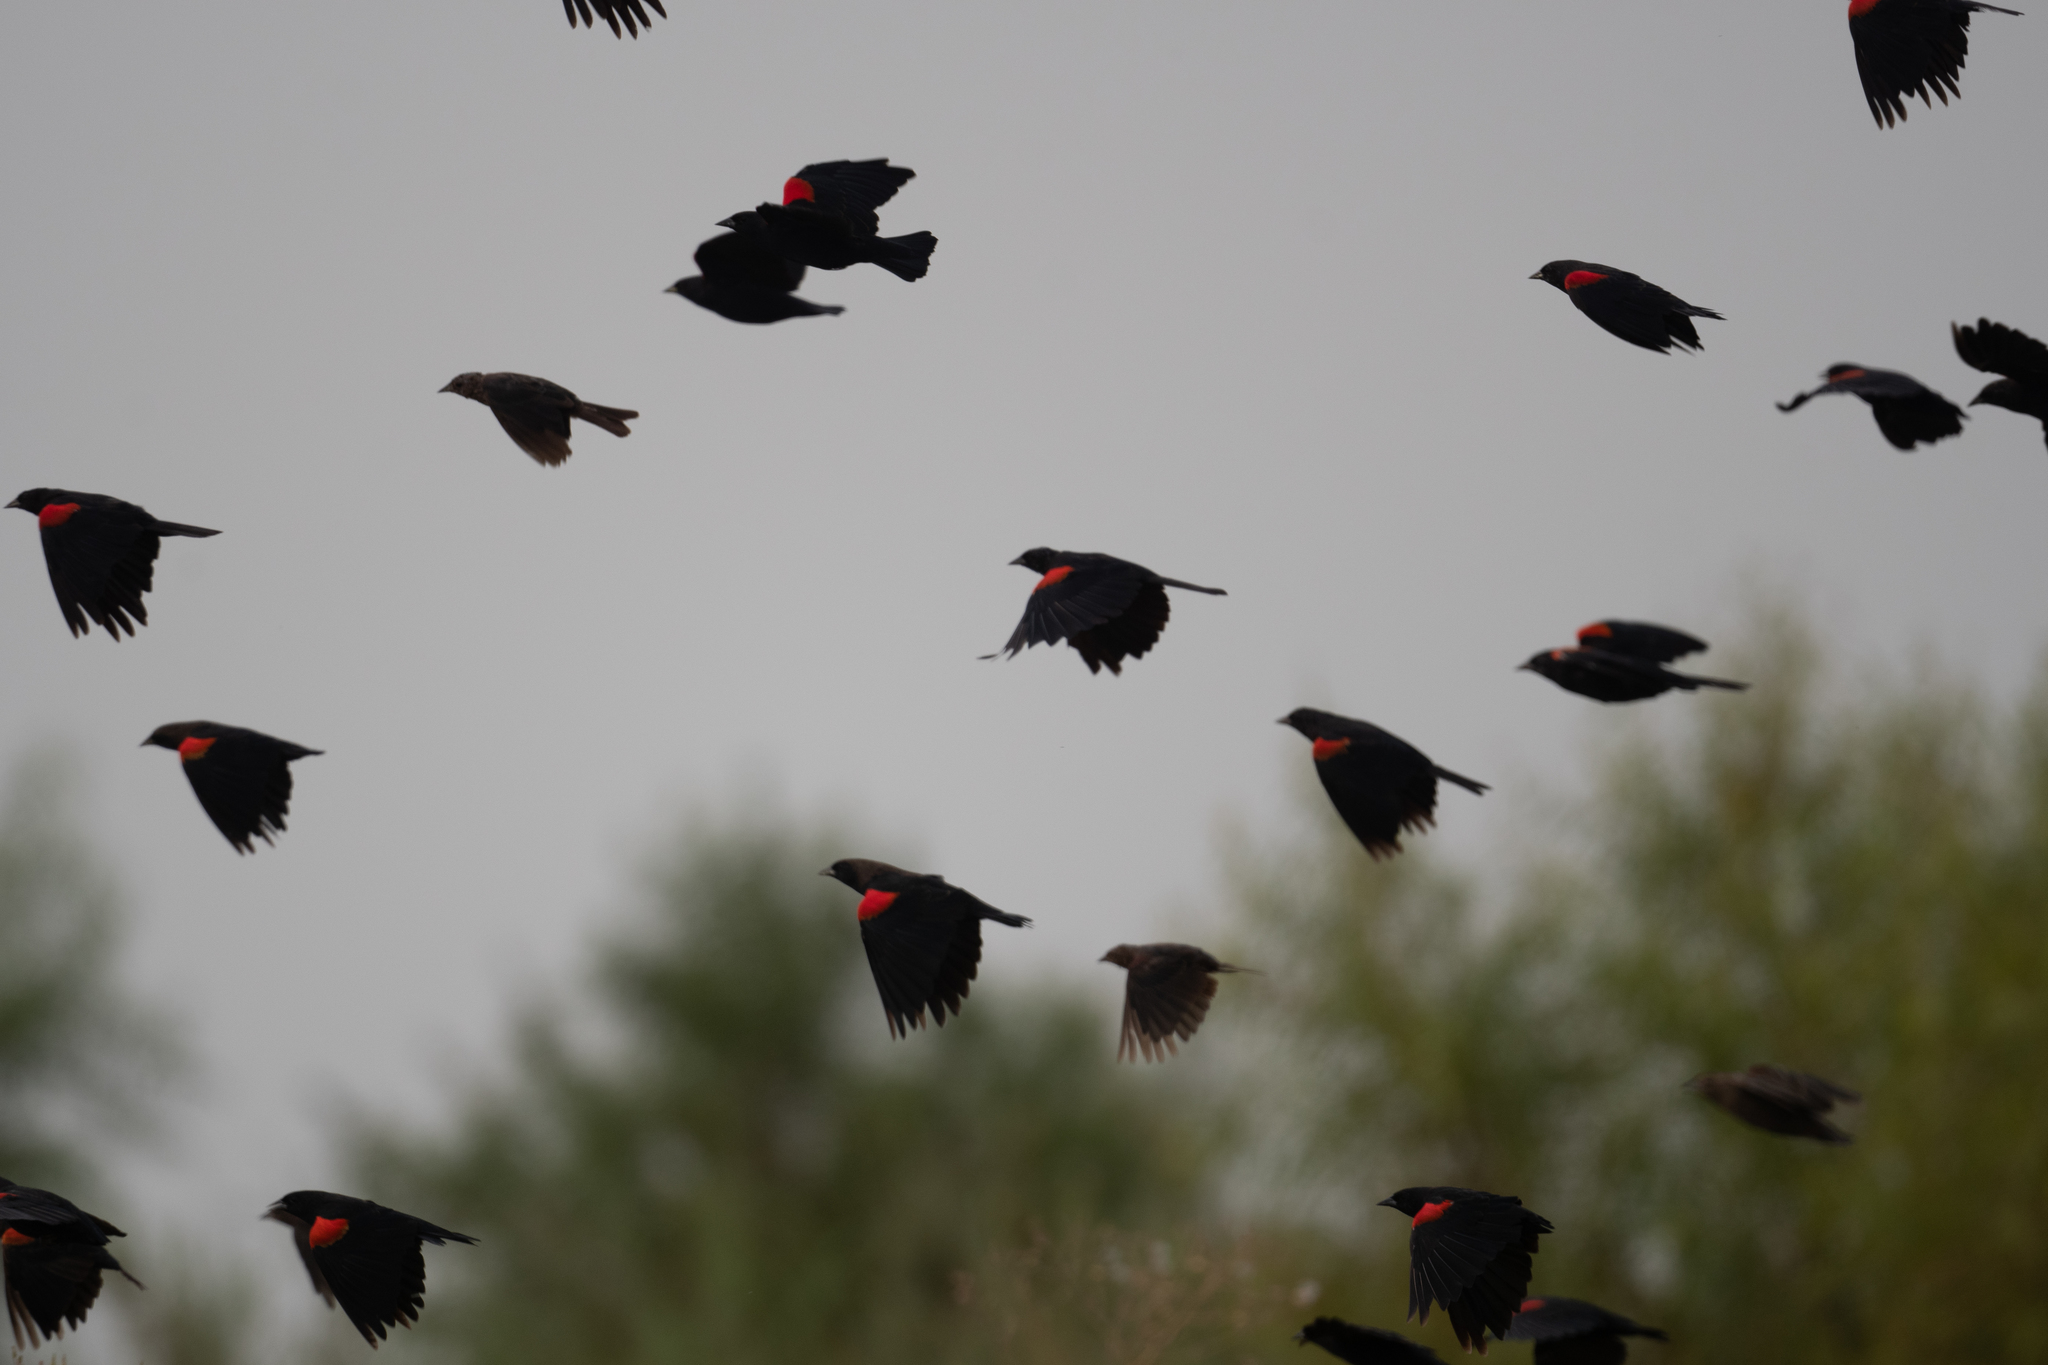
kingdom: Animalia
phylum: Chordata
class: Aves
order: Passeriformes
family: Icteridae
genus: Agelaius
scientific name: Agelaius phoeniceus
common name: Red-winged blackbird
